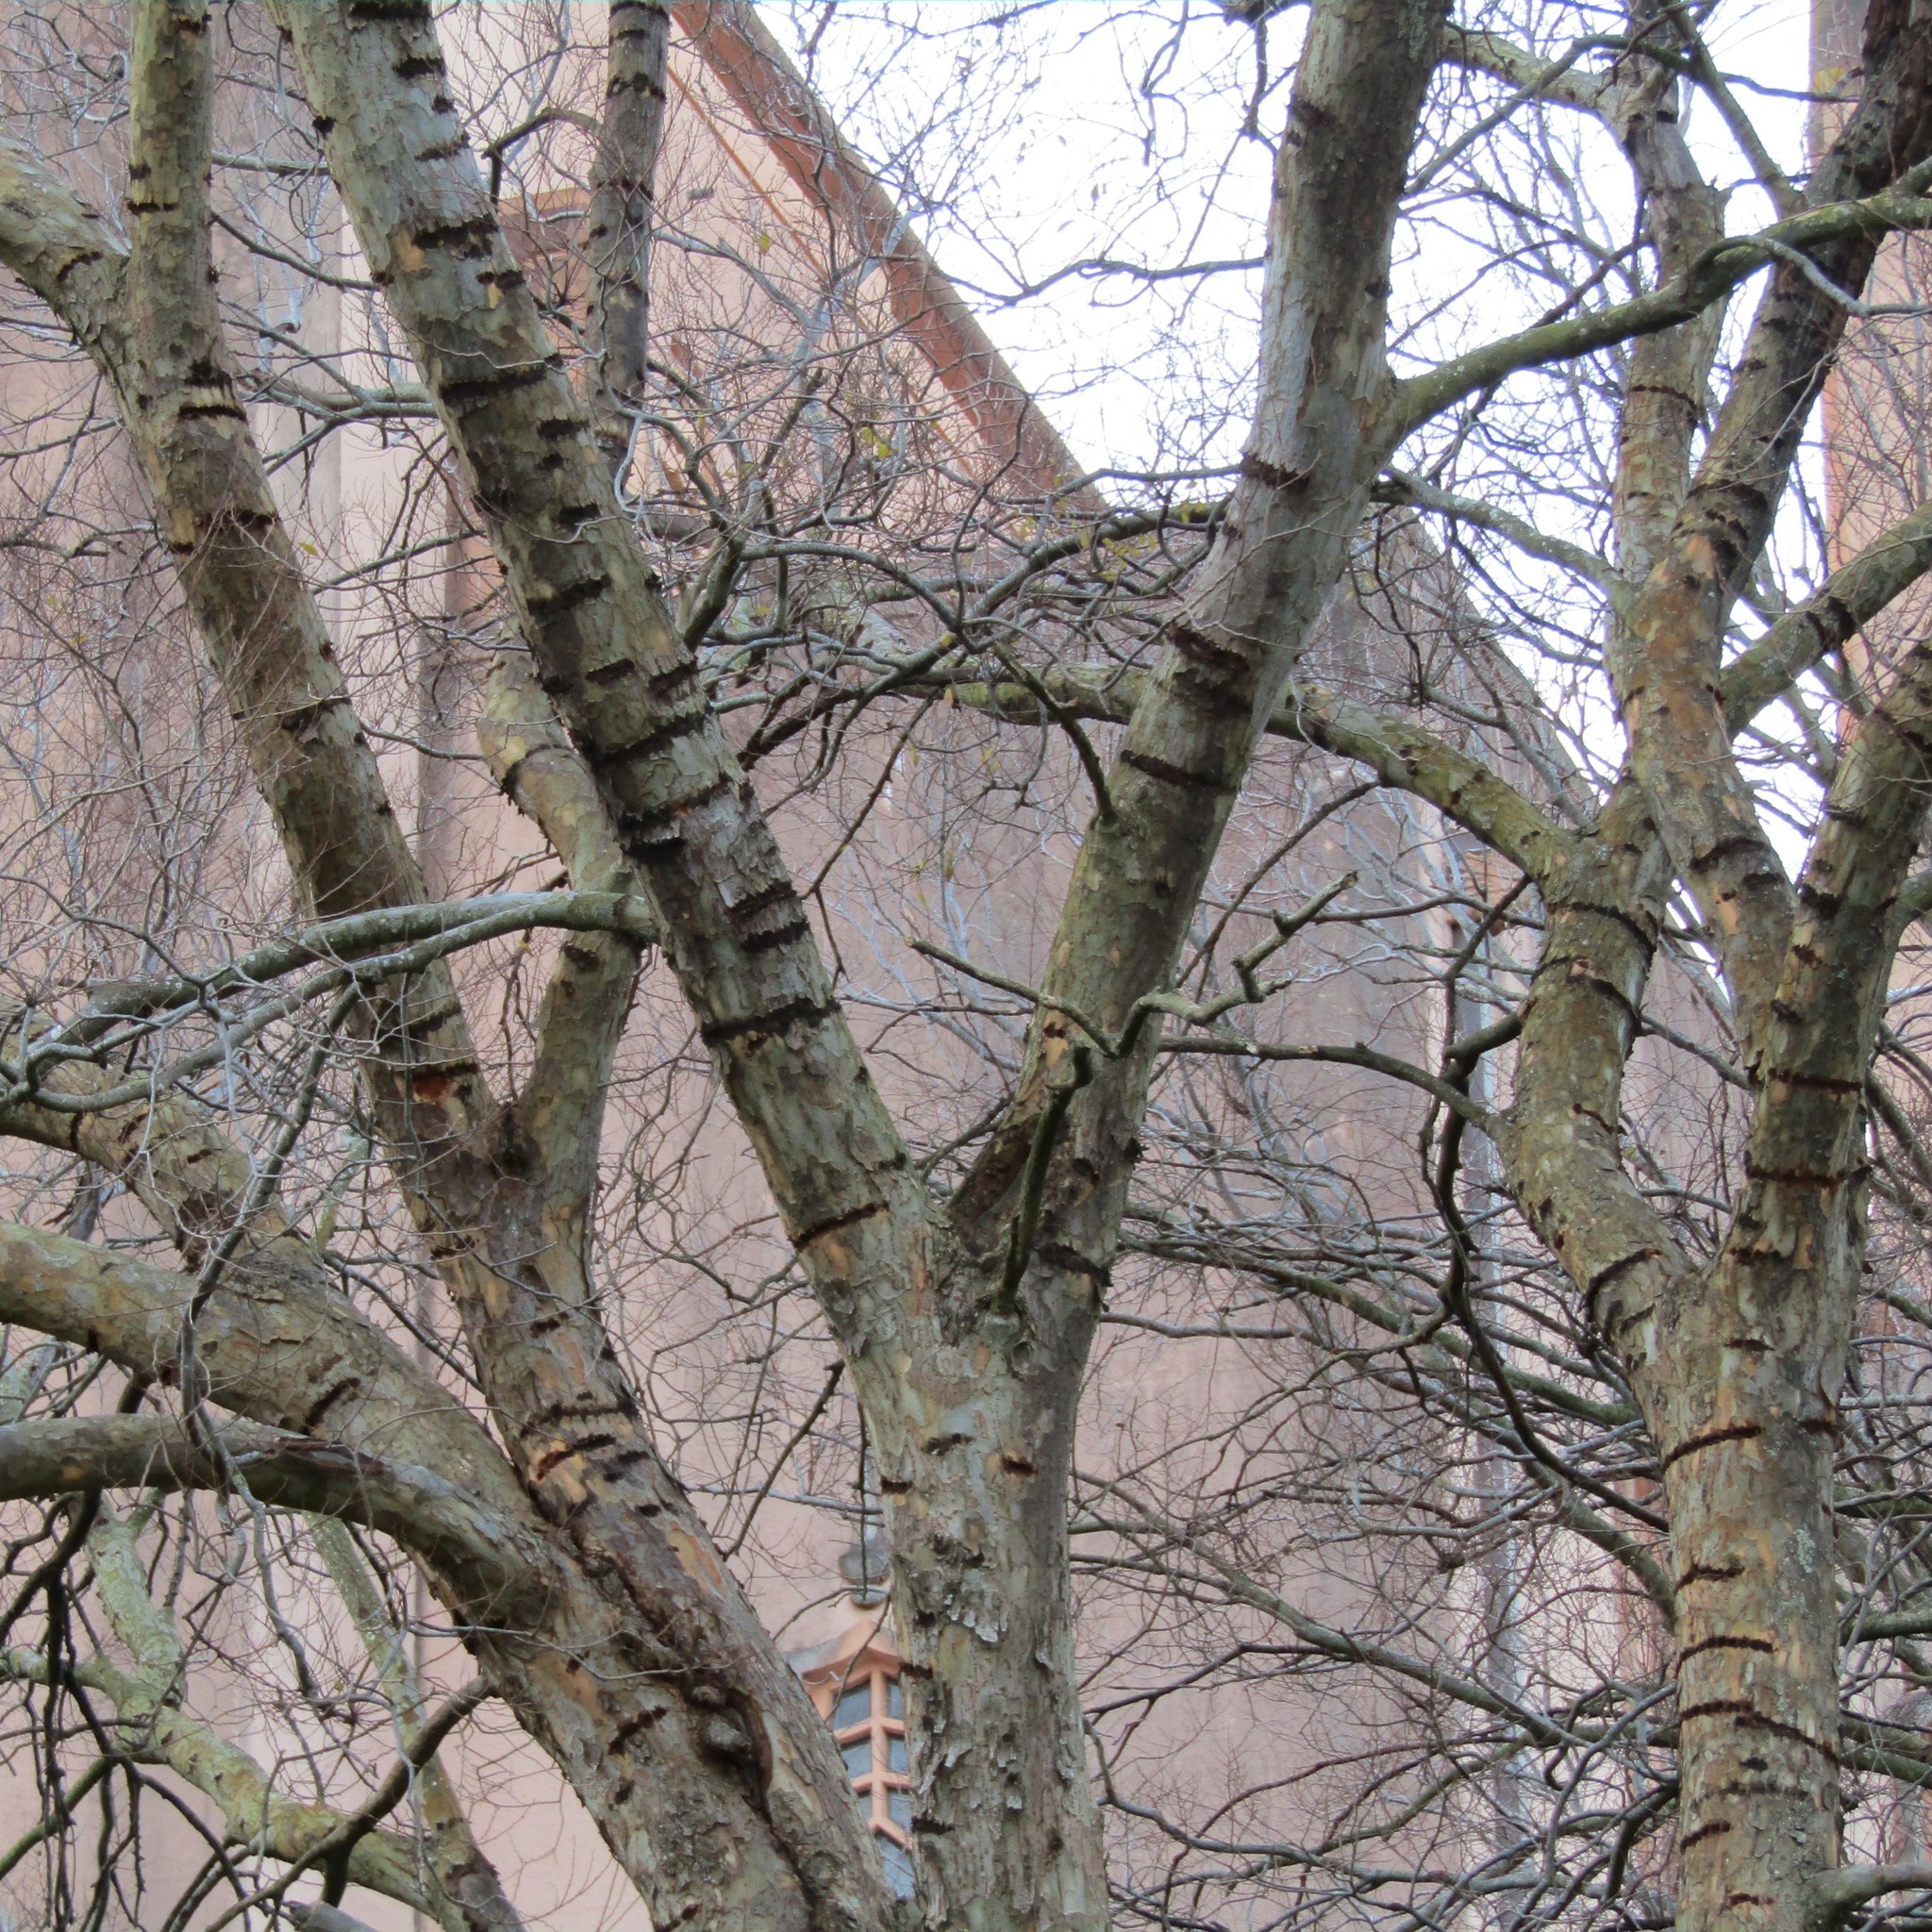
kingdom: Animalia
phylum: Chordata
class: Aves
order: Psittaciformes
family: Psittacidae
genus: Nestor
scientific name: Nestor meridionalis
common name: New zealand kaka
